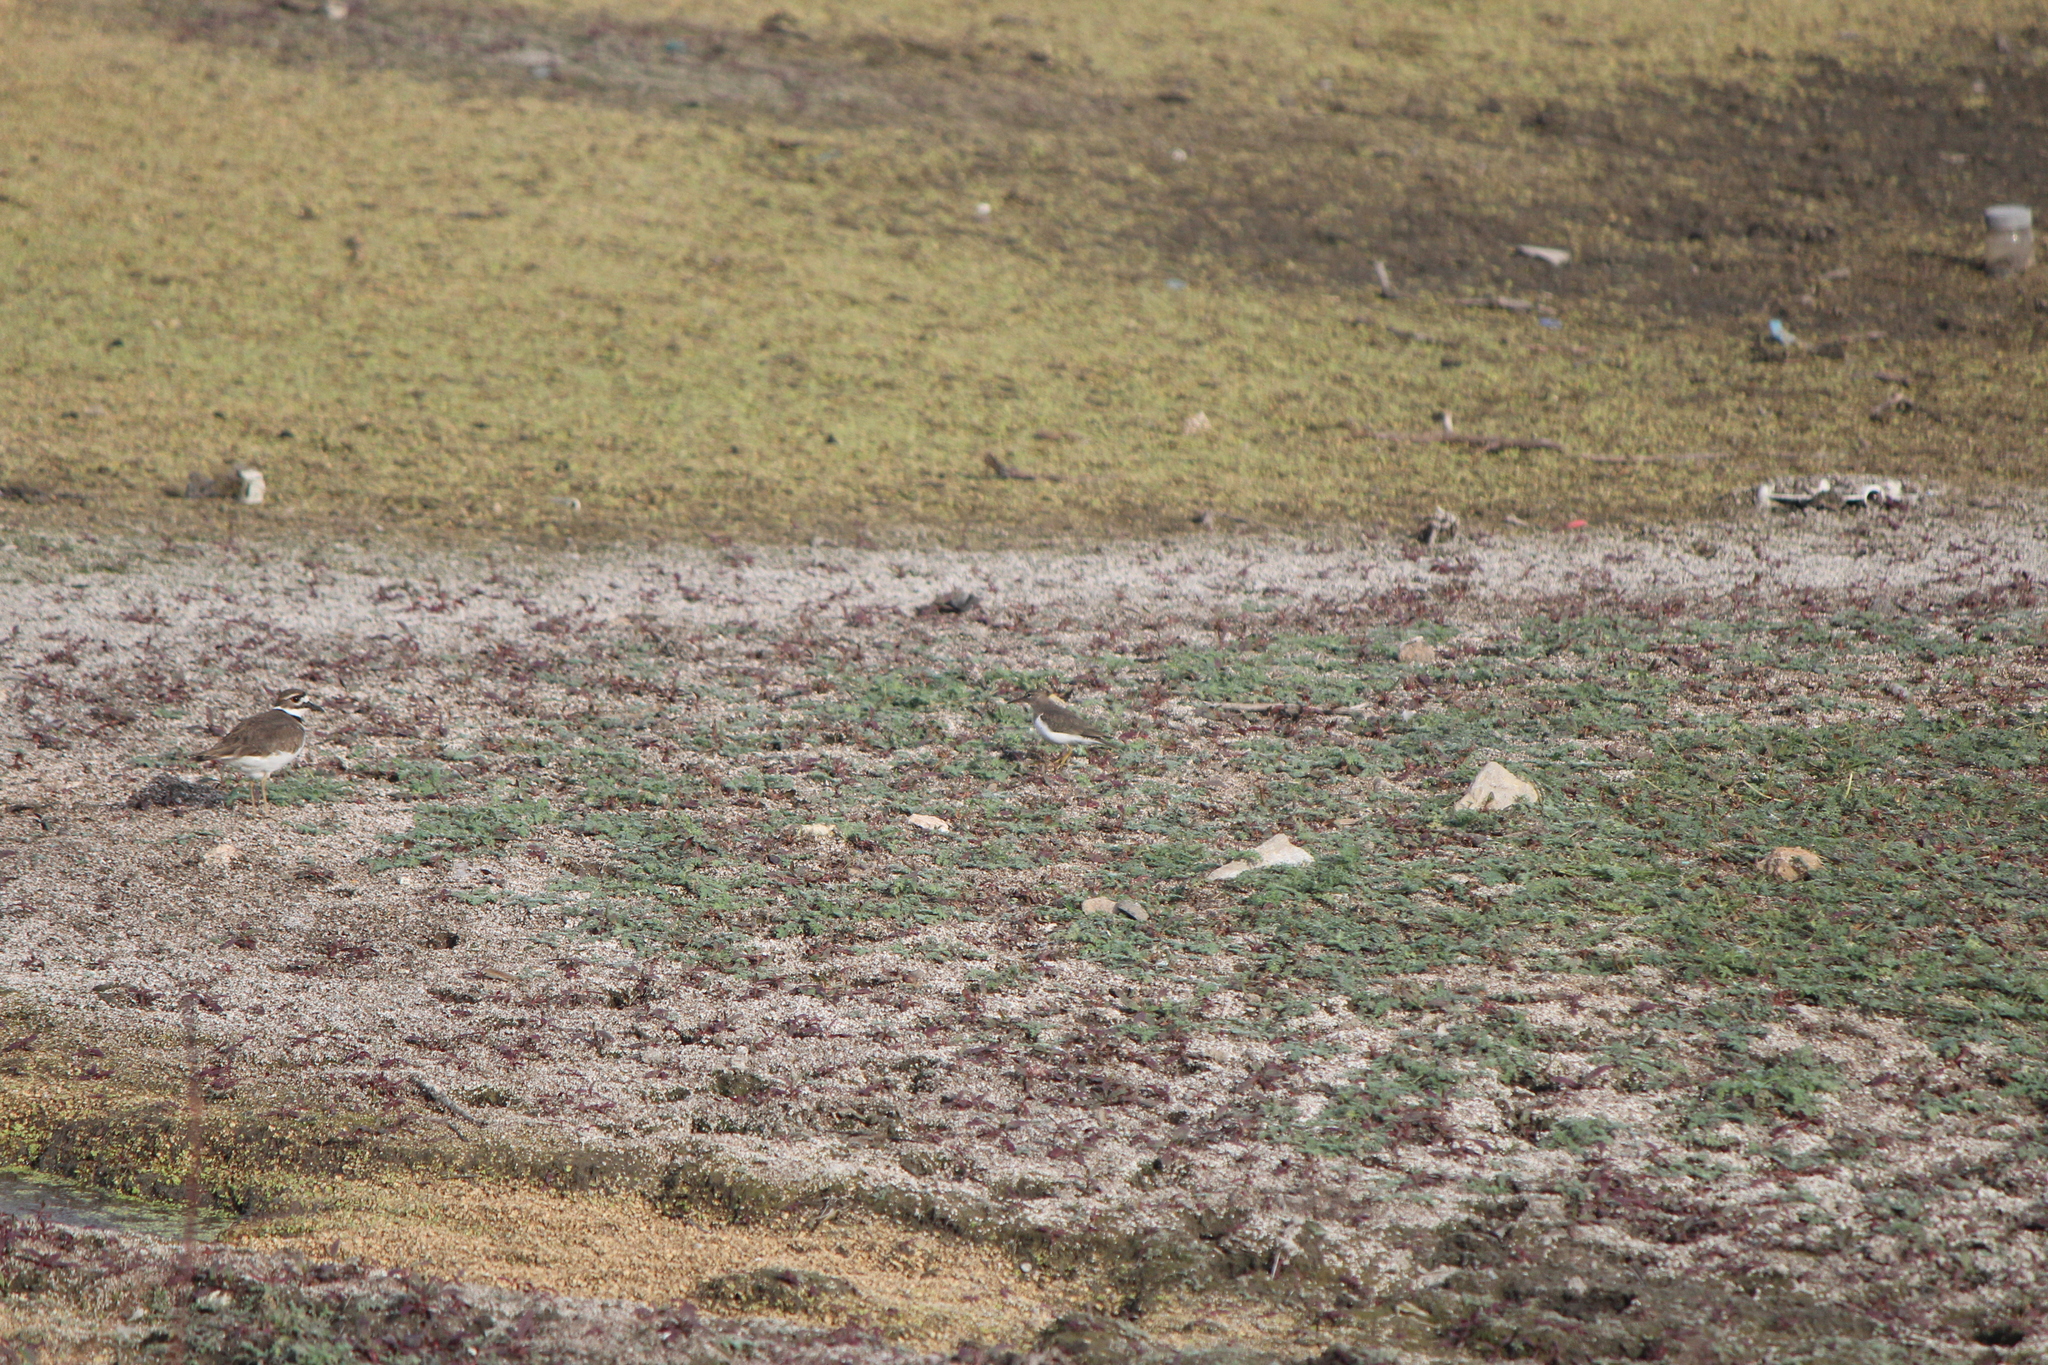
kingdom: Animalia
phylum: Chordata
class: Aves
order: Charadriiformes
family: Charadriidae
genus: Charadrius
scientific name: Charadrius vociferus
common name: Killdeer
